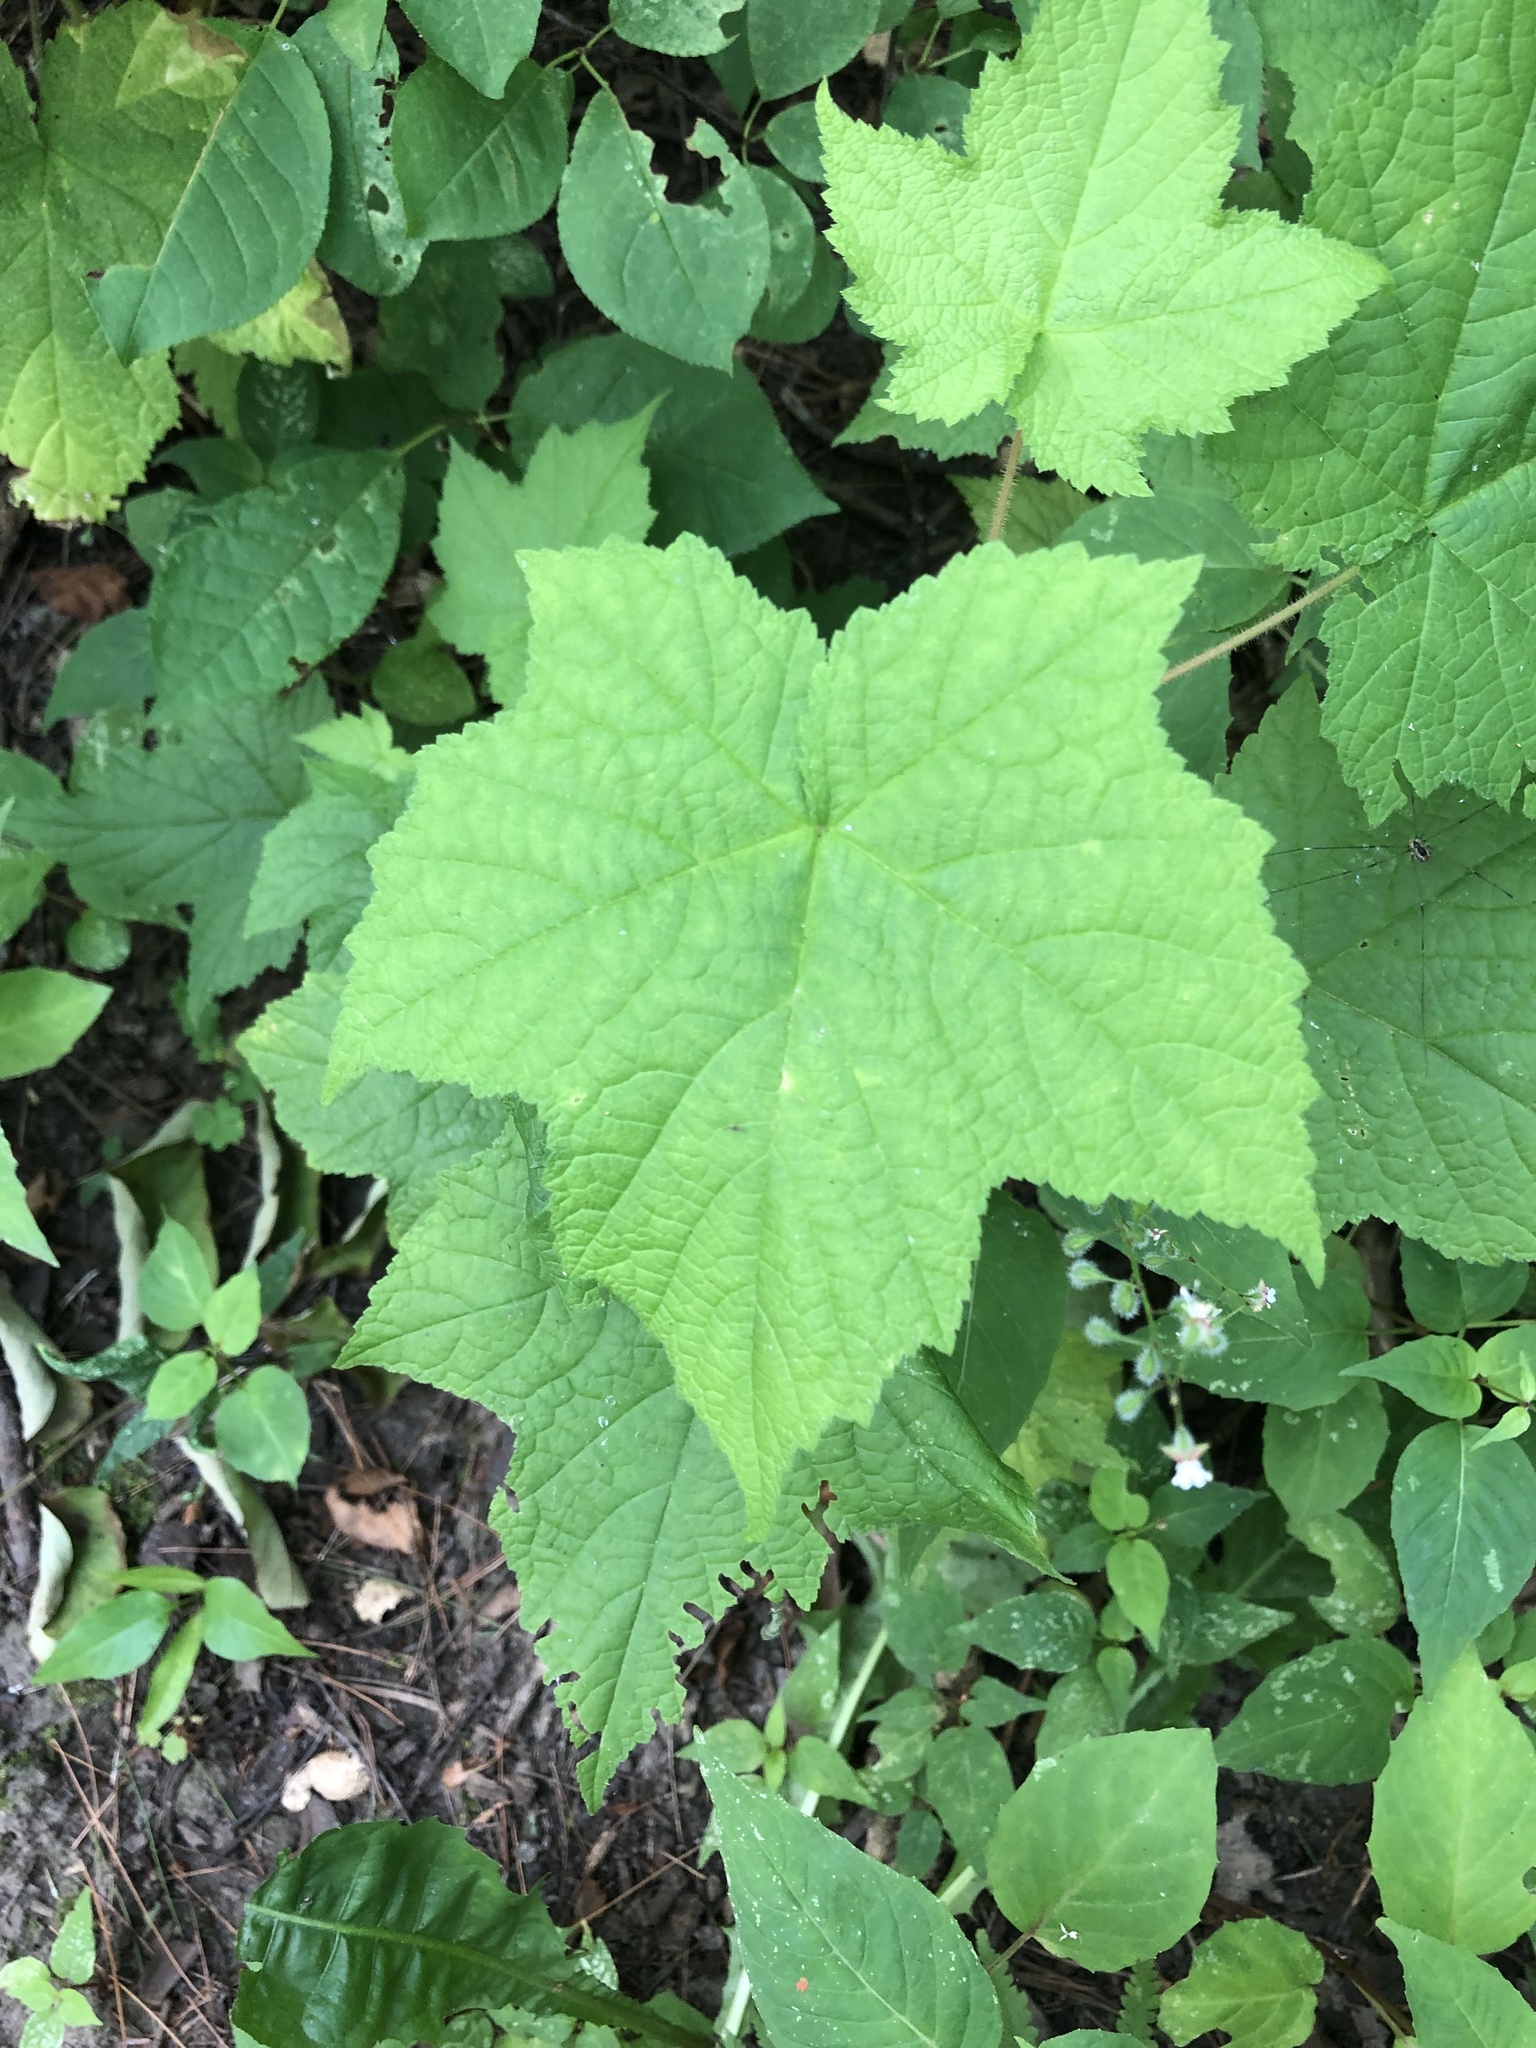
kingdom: Plantae
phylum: Tracheophyta
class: Magnoliopsida
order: Rosales
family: Rosaceae
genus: Rubus
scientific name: Rubus odoratus
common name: Purple-flowered raspberry
